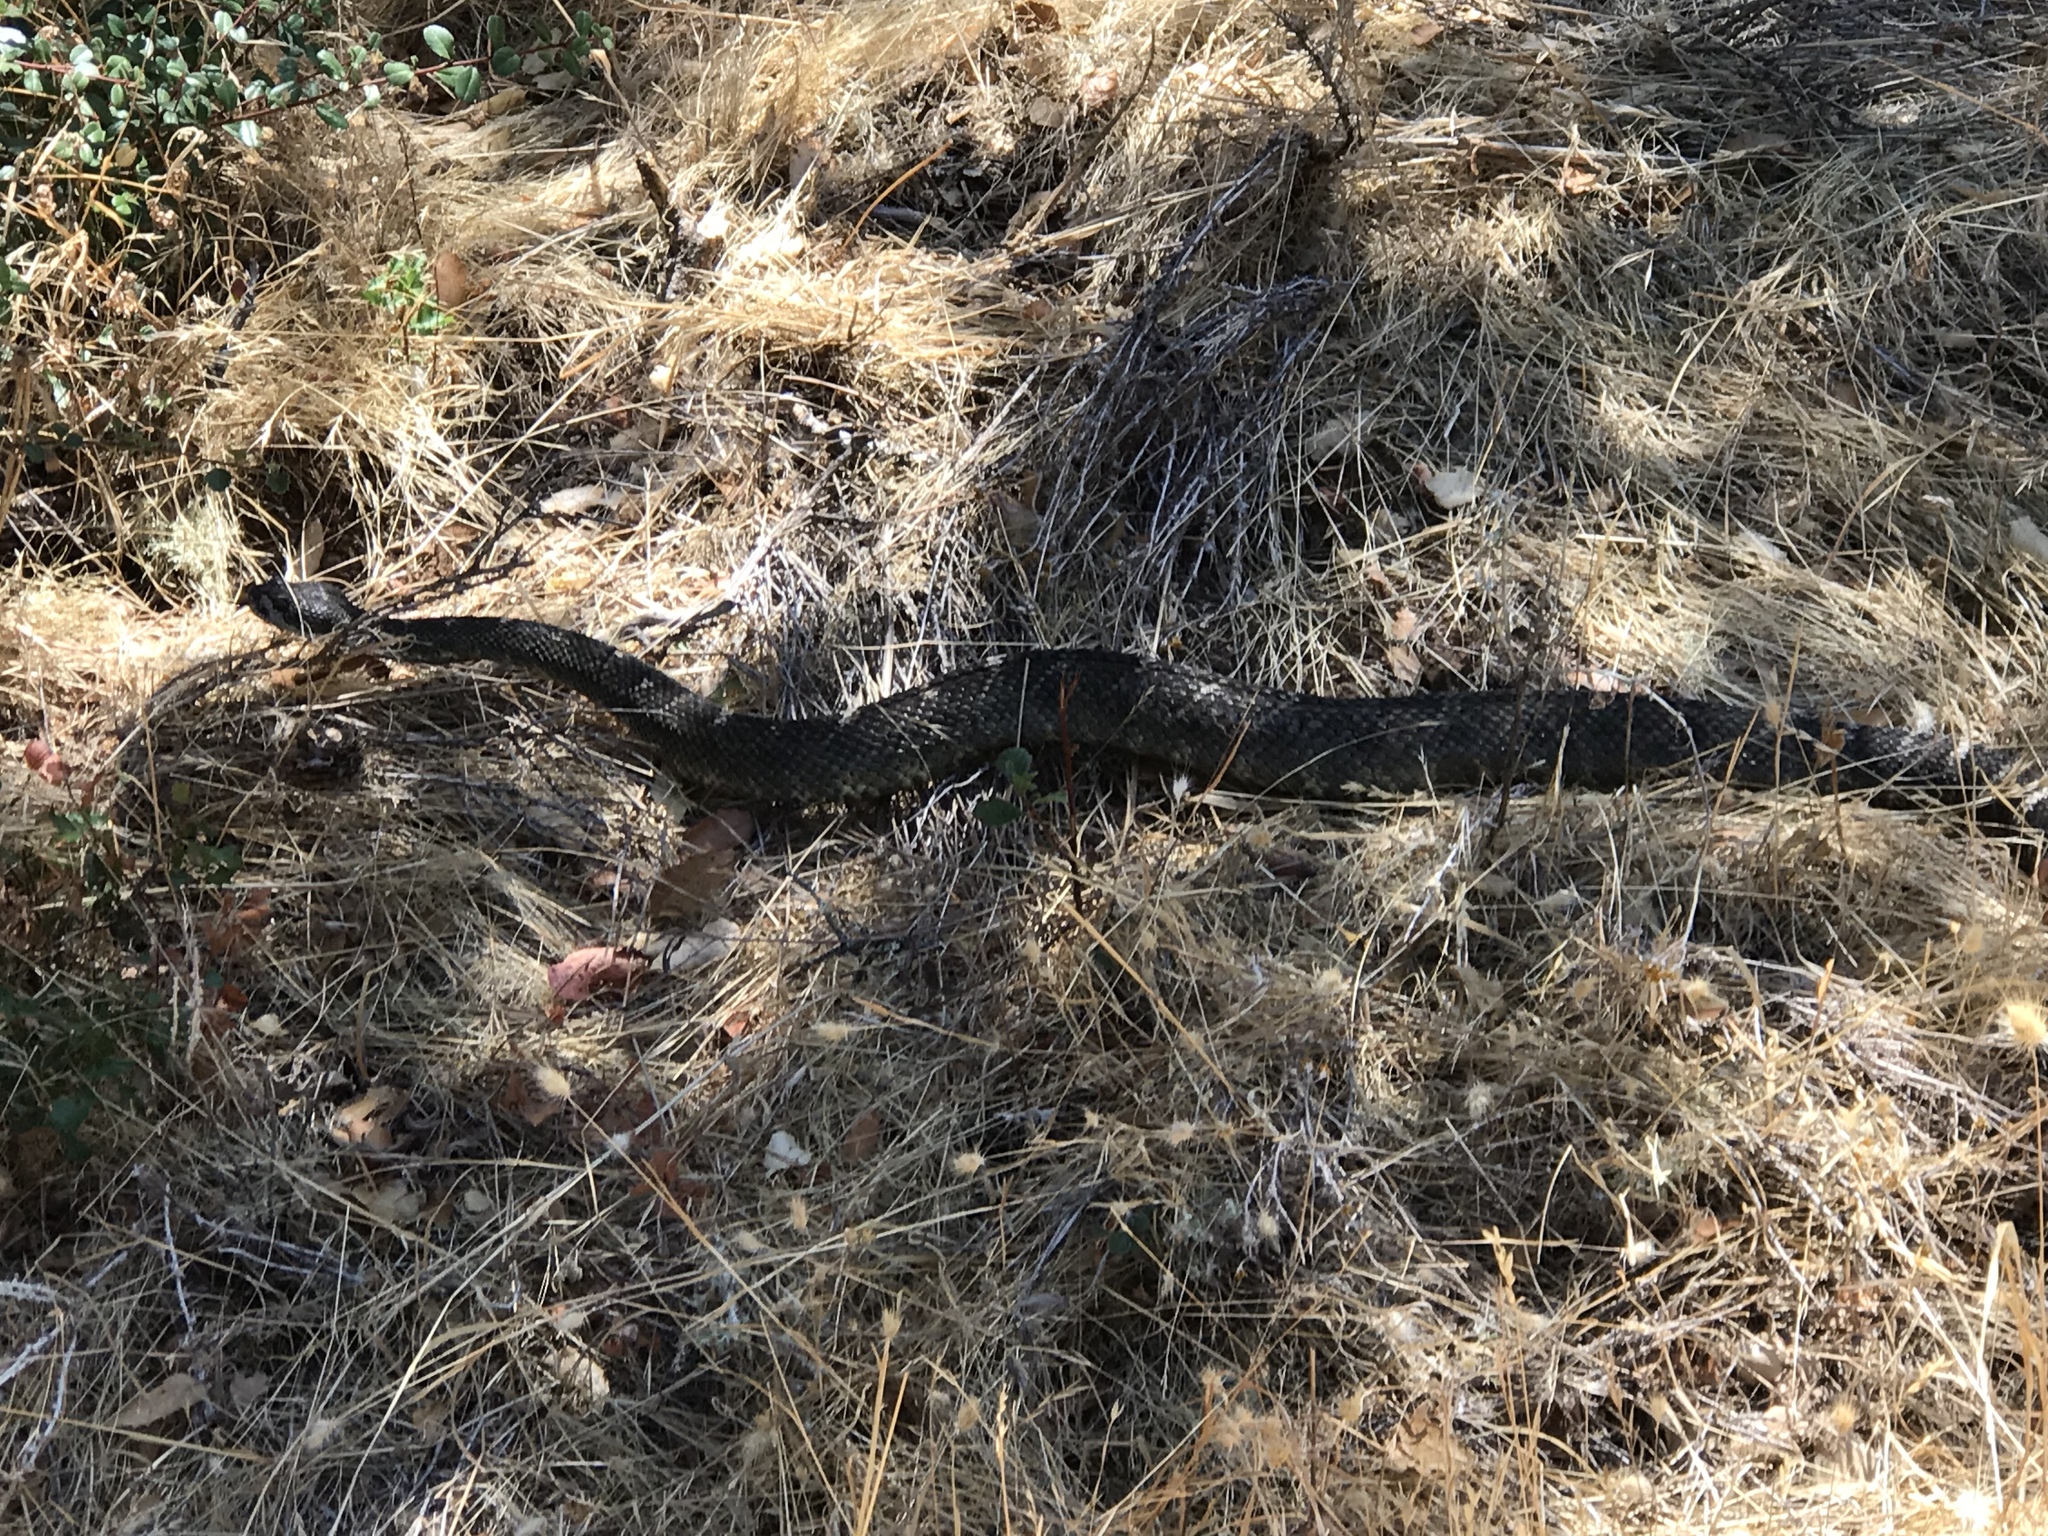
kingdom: Animalia
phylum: Chordata
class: Squamata
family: Viperidae
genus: Crotalus
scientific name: Crotalus oreganus
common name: Abyssus
